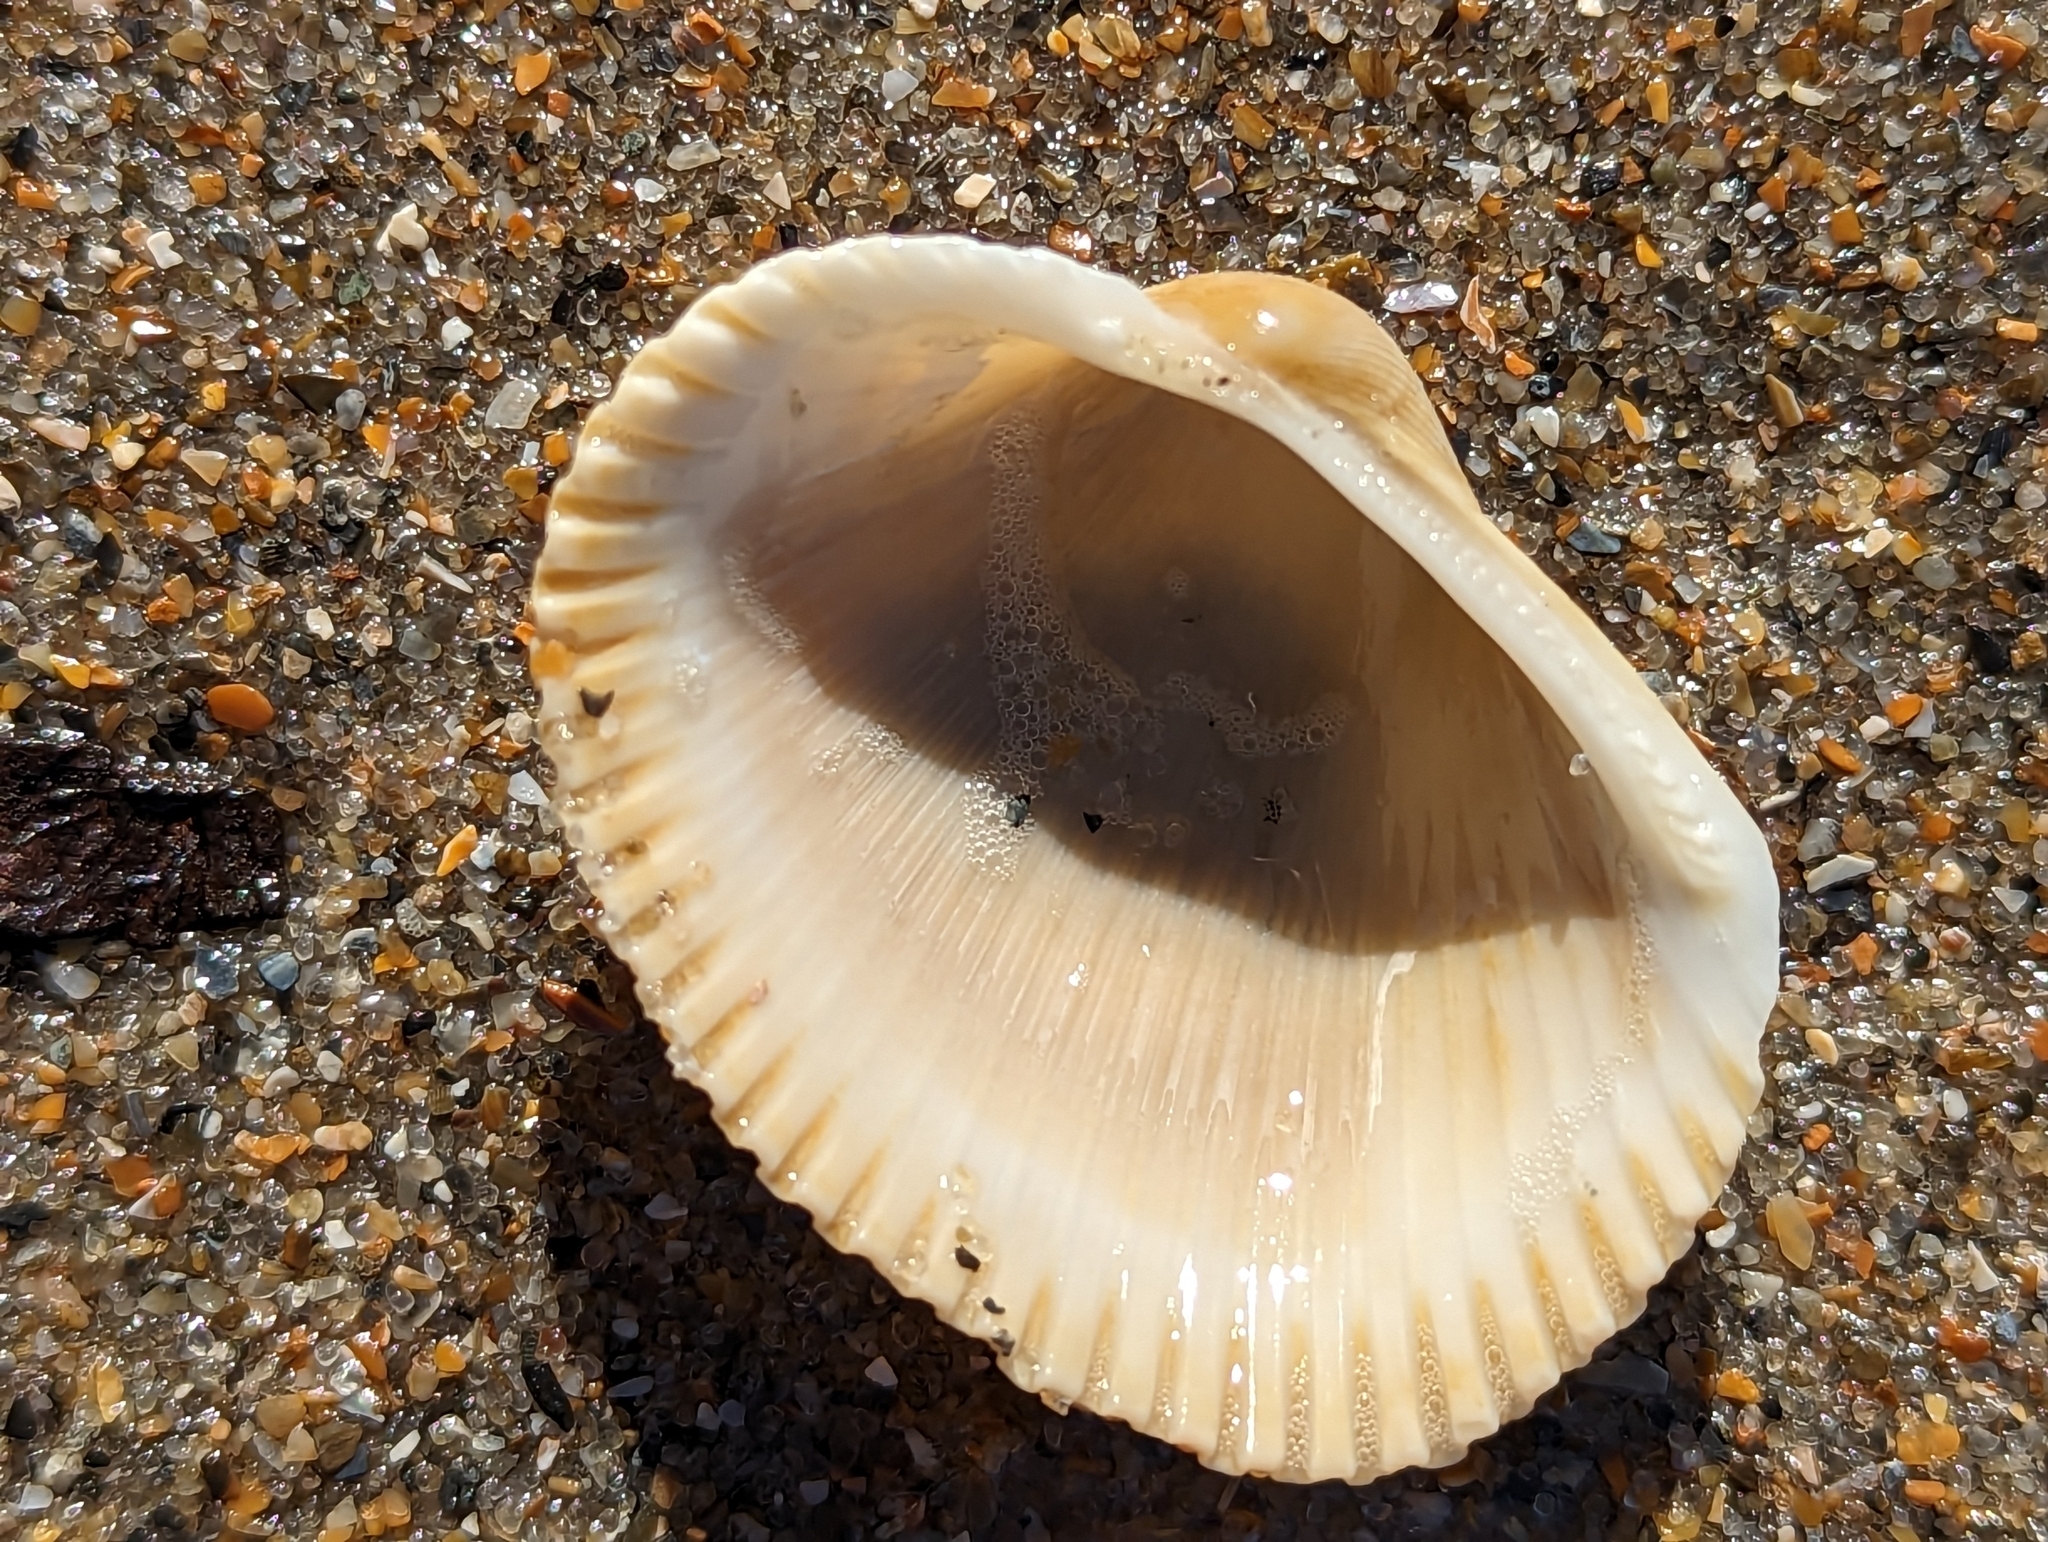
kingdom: Animalia
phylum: Mollusca
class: Bivalvia
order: Arcida
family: Arcidae
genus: Lunarca
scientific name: Lunarca ovalis
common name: Blood ark
